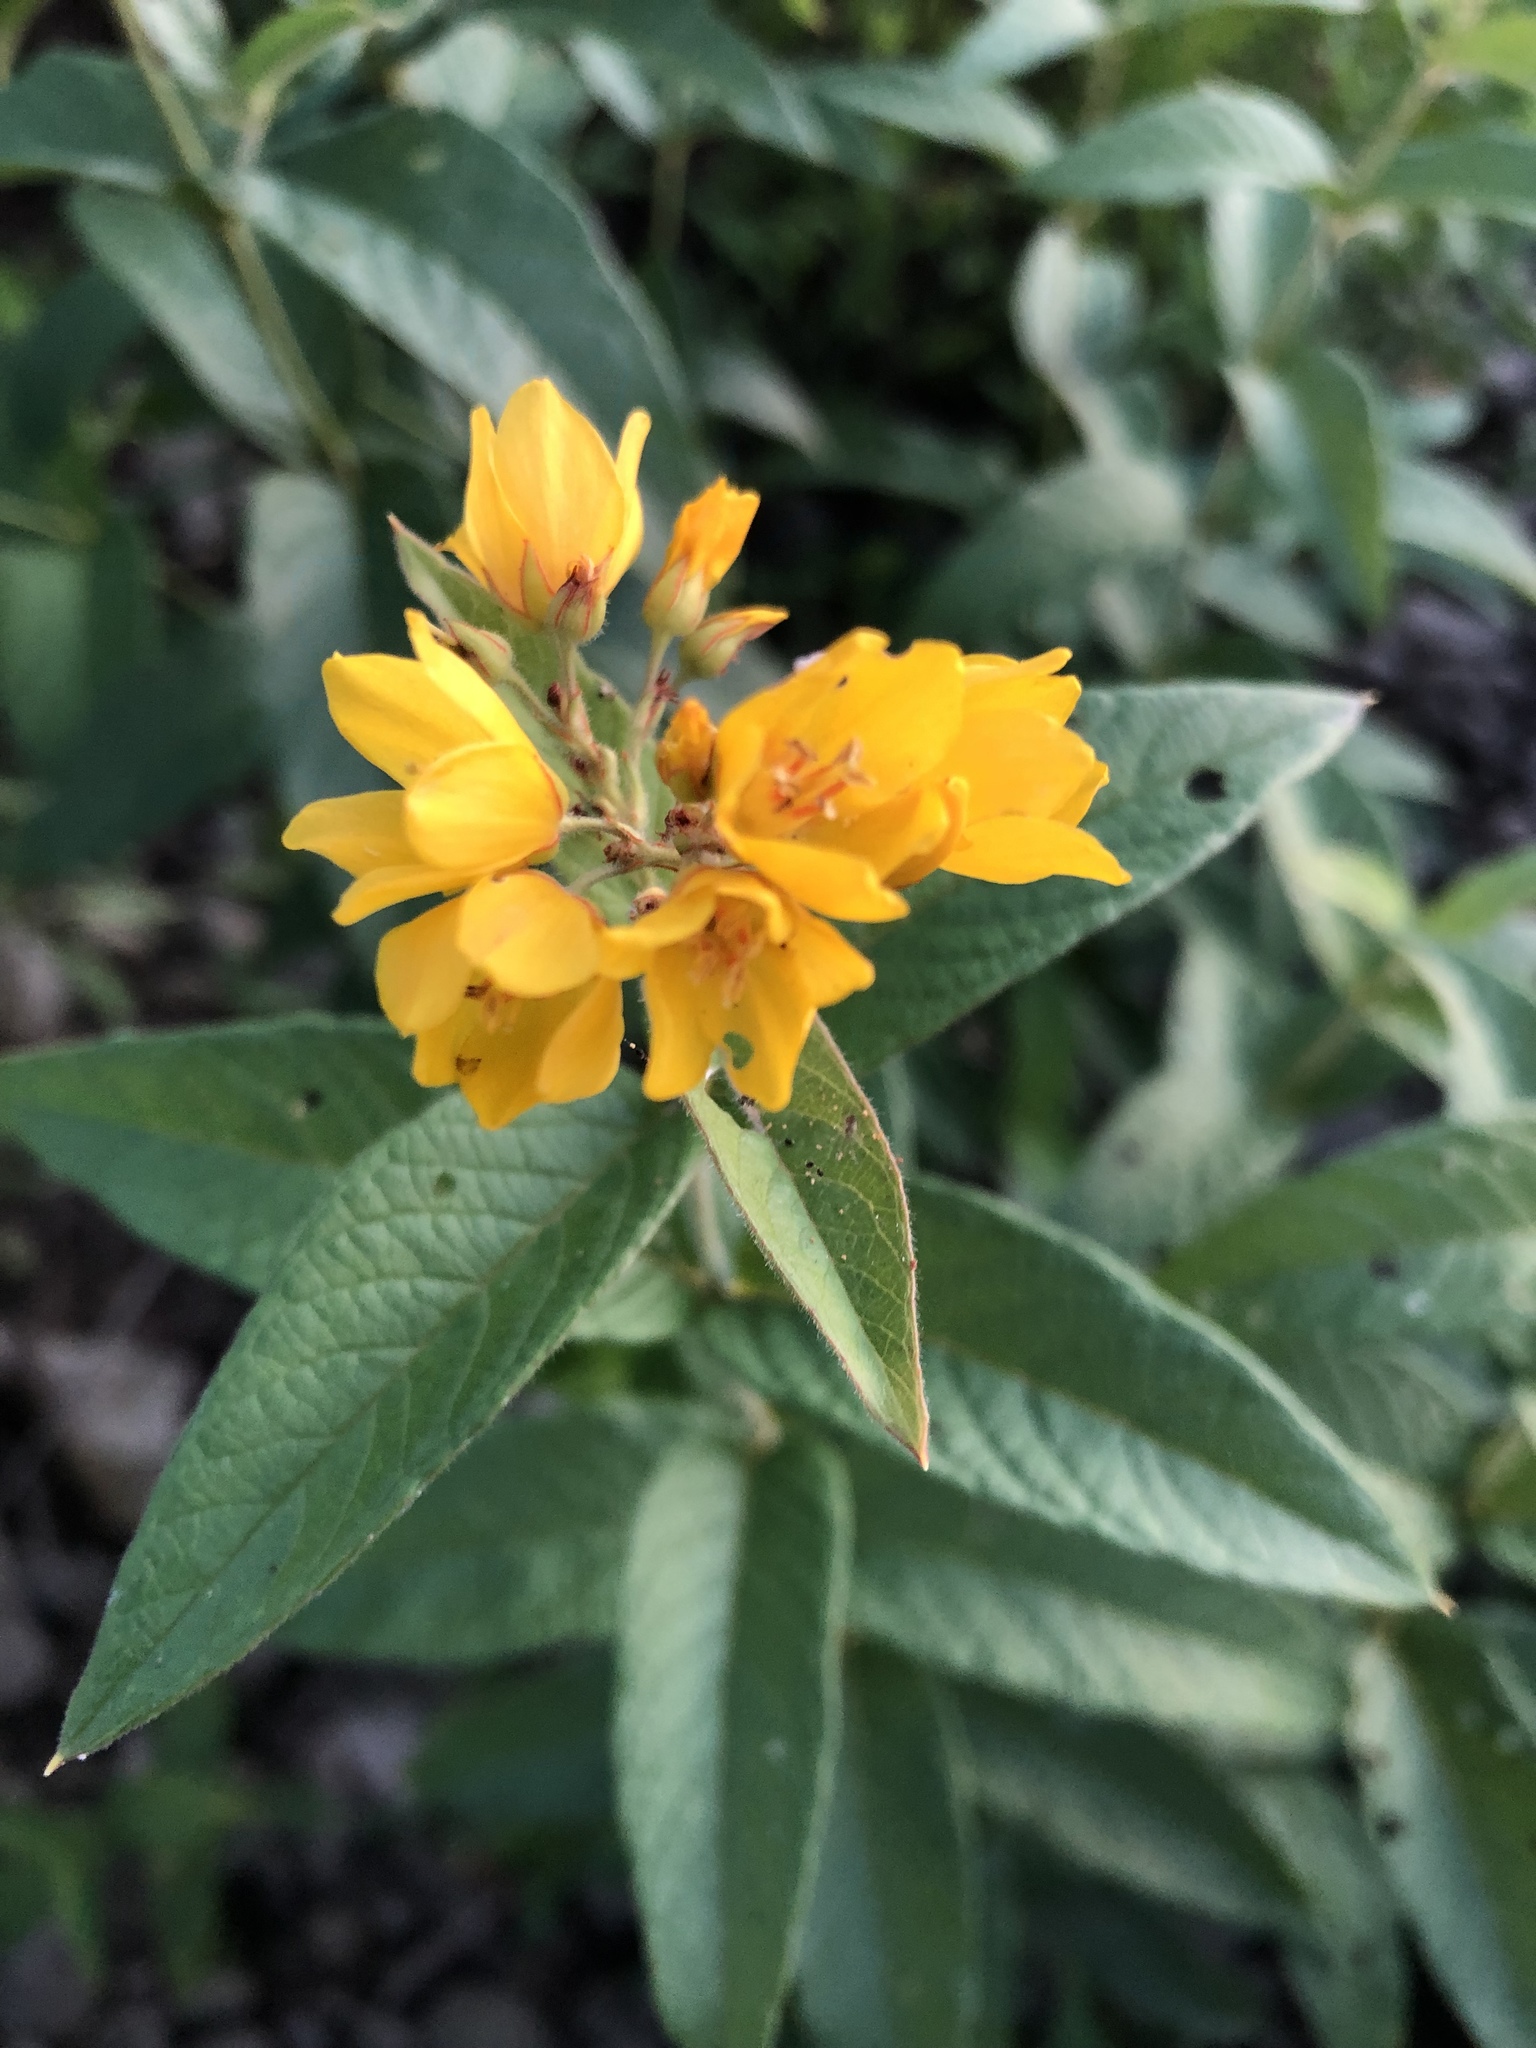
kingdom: Plantae
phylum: Tracheophyta
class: Magnoliopsida
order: Ericales
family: Primulaceae
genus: Lysimachia
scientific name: Lysimachia vulgaris
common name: Yellow loosestrife
